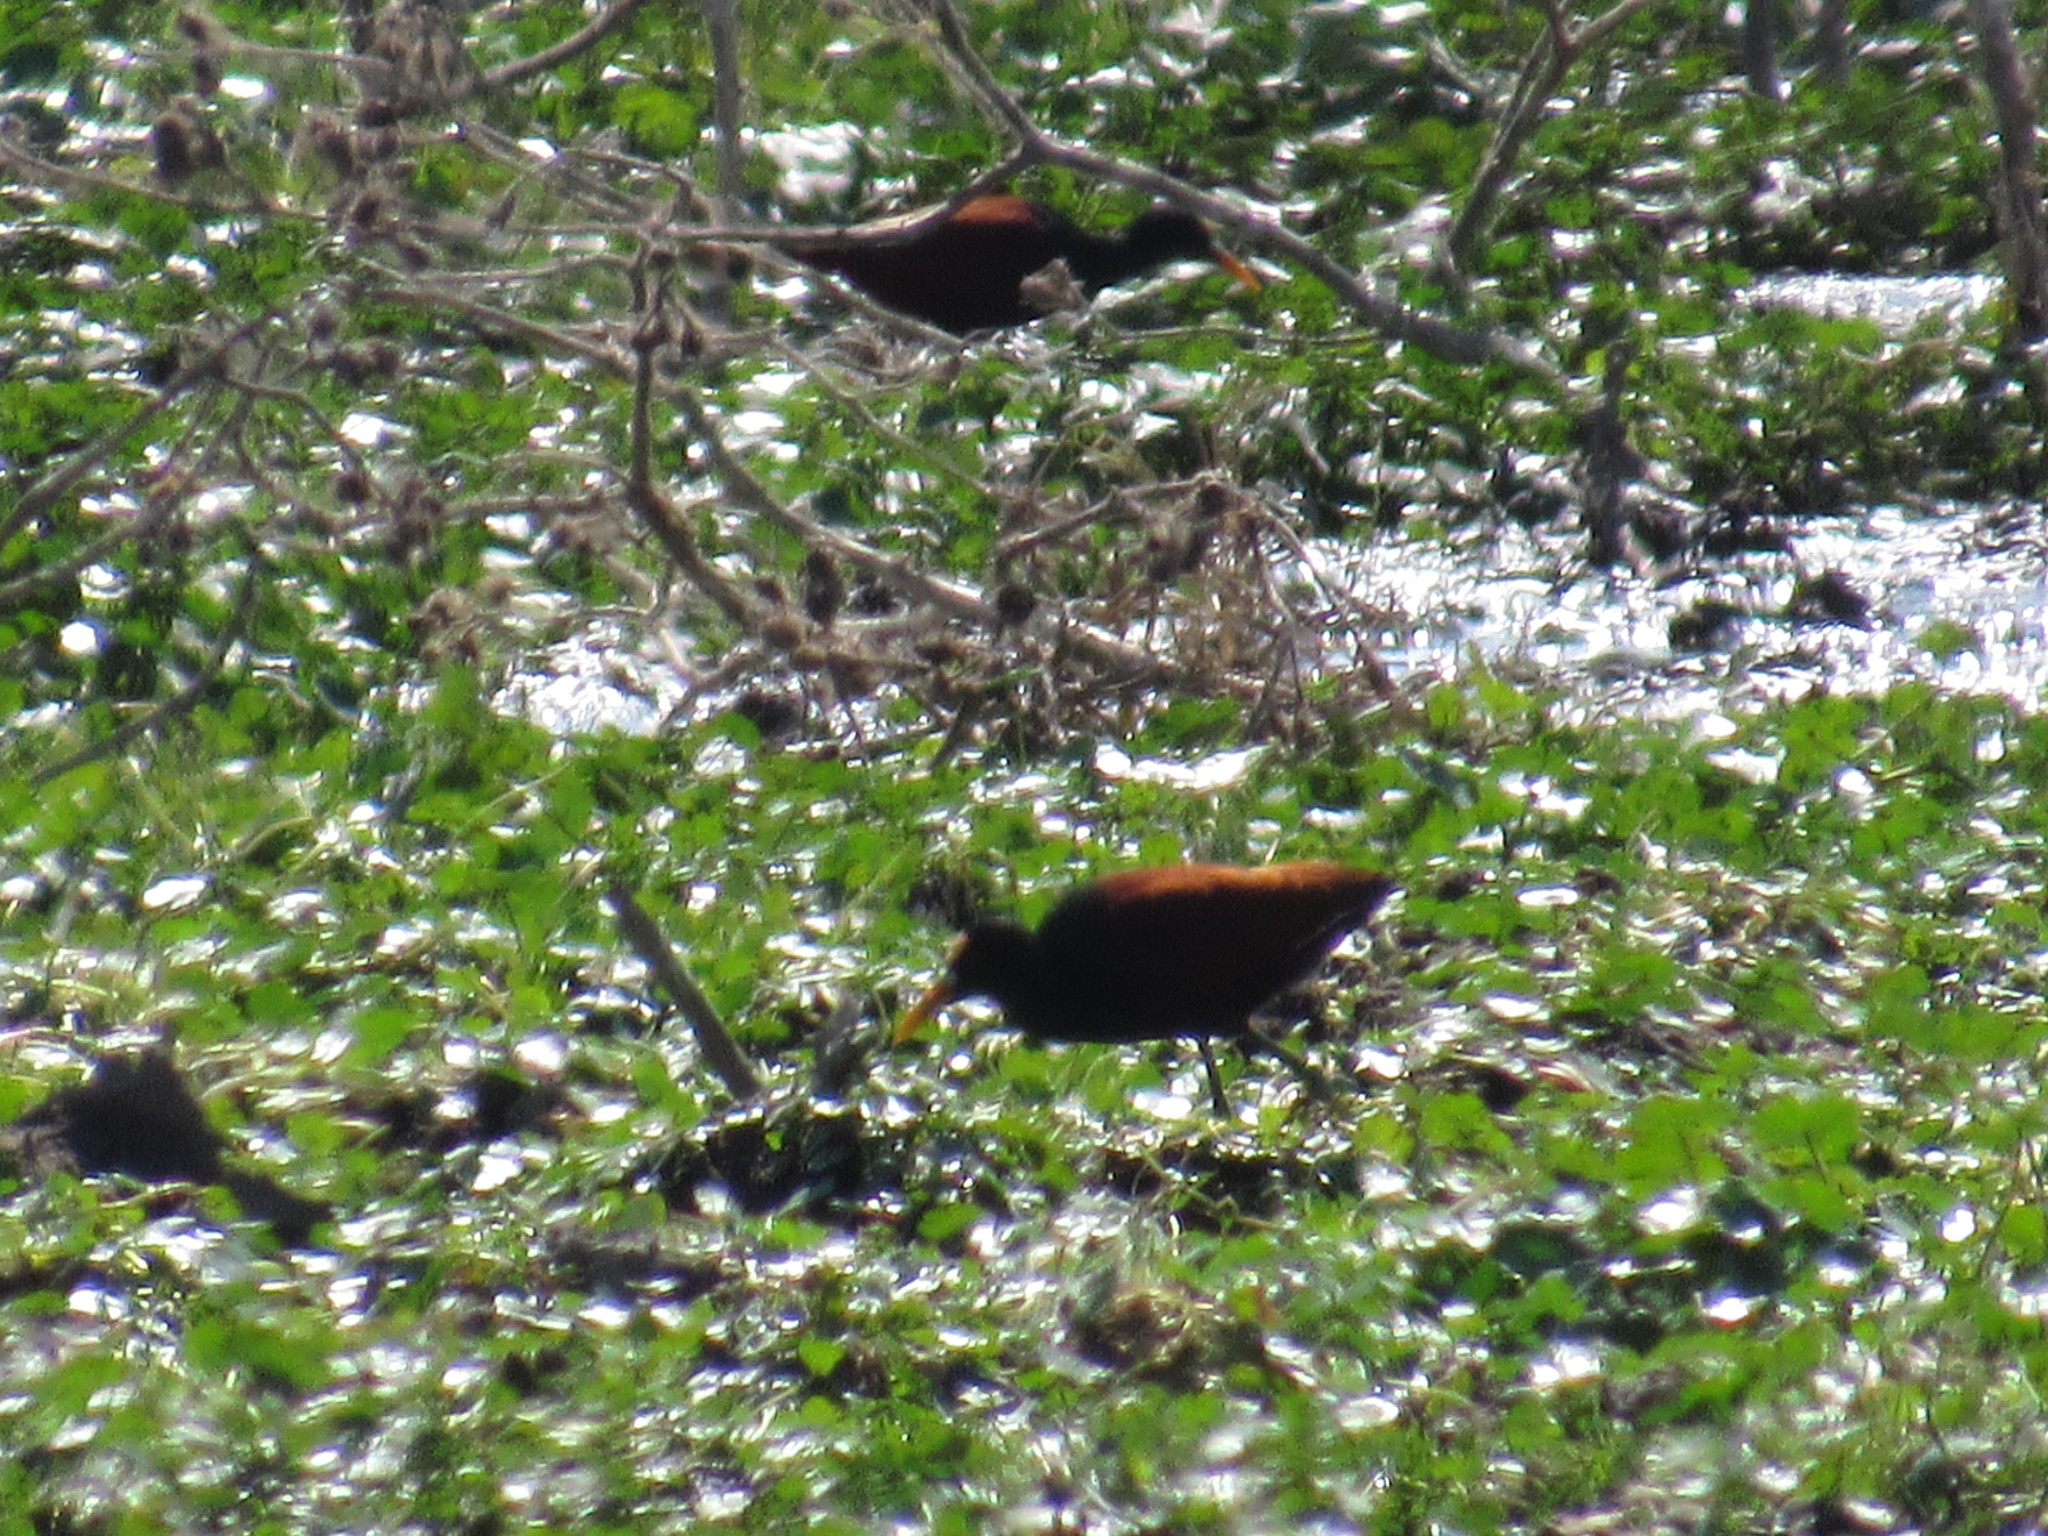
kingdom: Animalia
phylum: Chordata
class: Aves
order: Charadriiformes
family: Jacanidae
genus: Jacana
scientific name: Jacana spinosa
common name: Northern jacana
